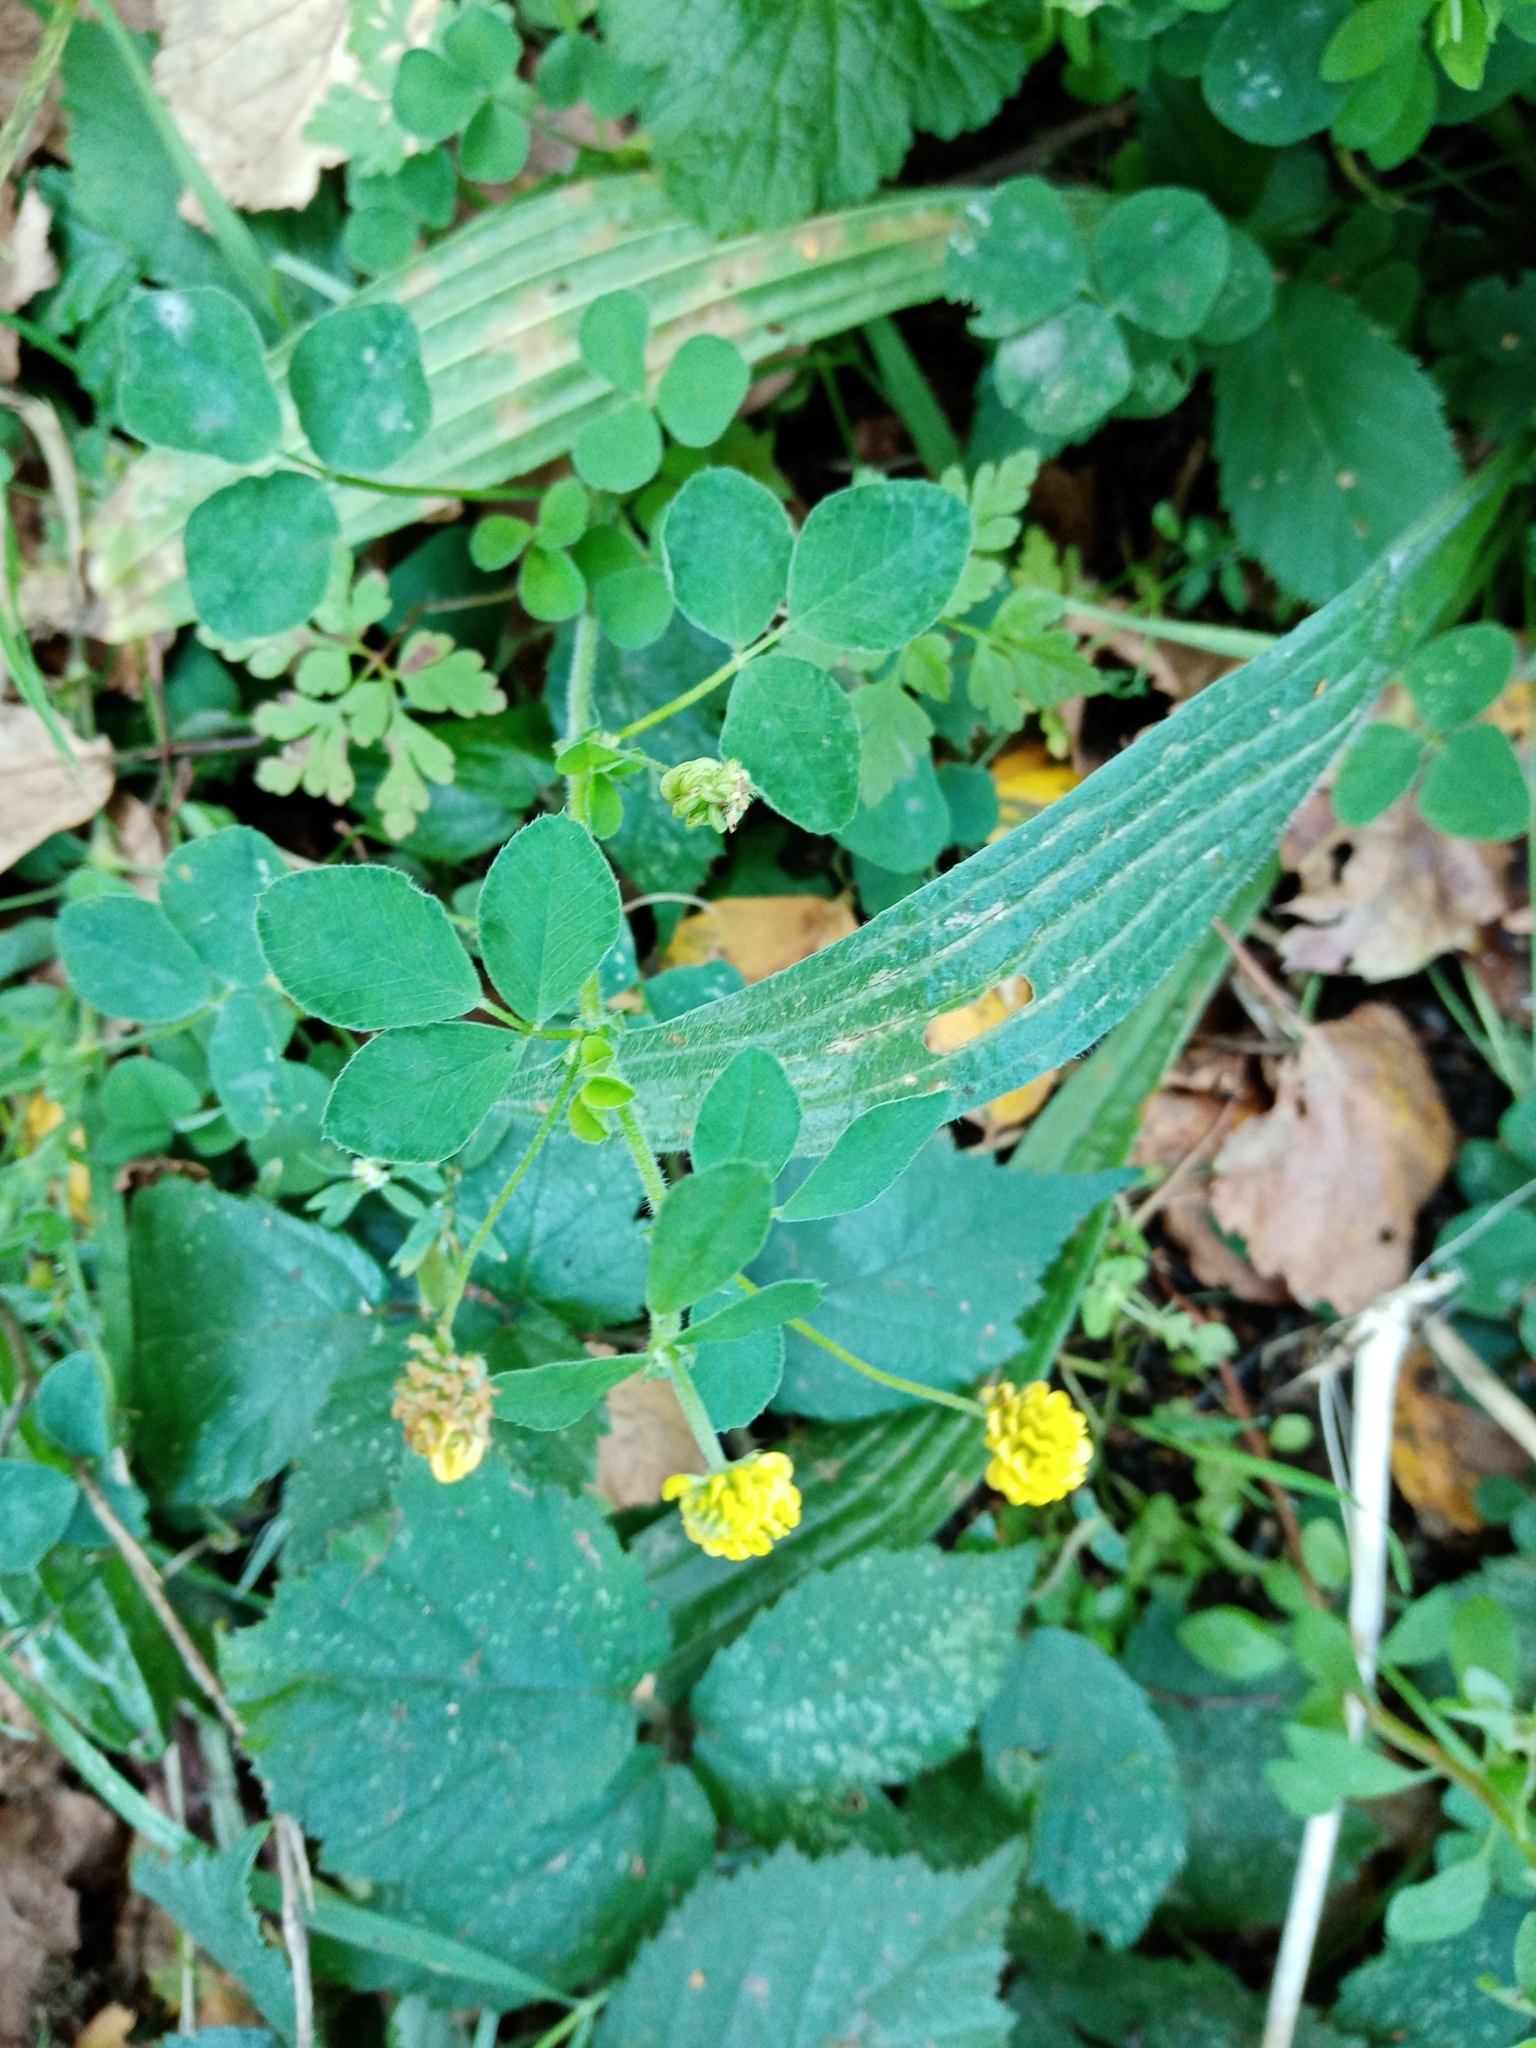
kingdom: Plantae
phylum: Tracheophyta
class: Magnoliopsida
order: Fabales
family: Fabaceae
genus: Medicago
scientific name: Medicago lupulina
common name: Black medick
